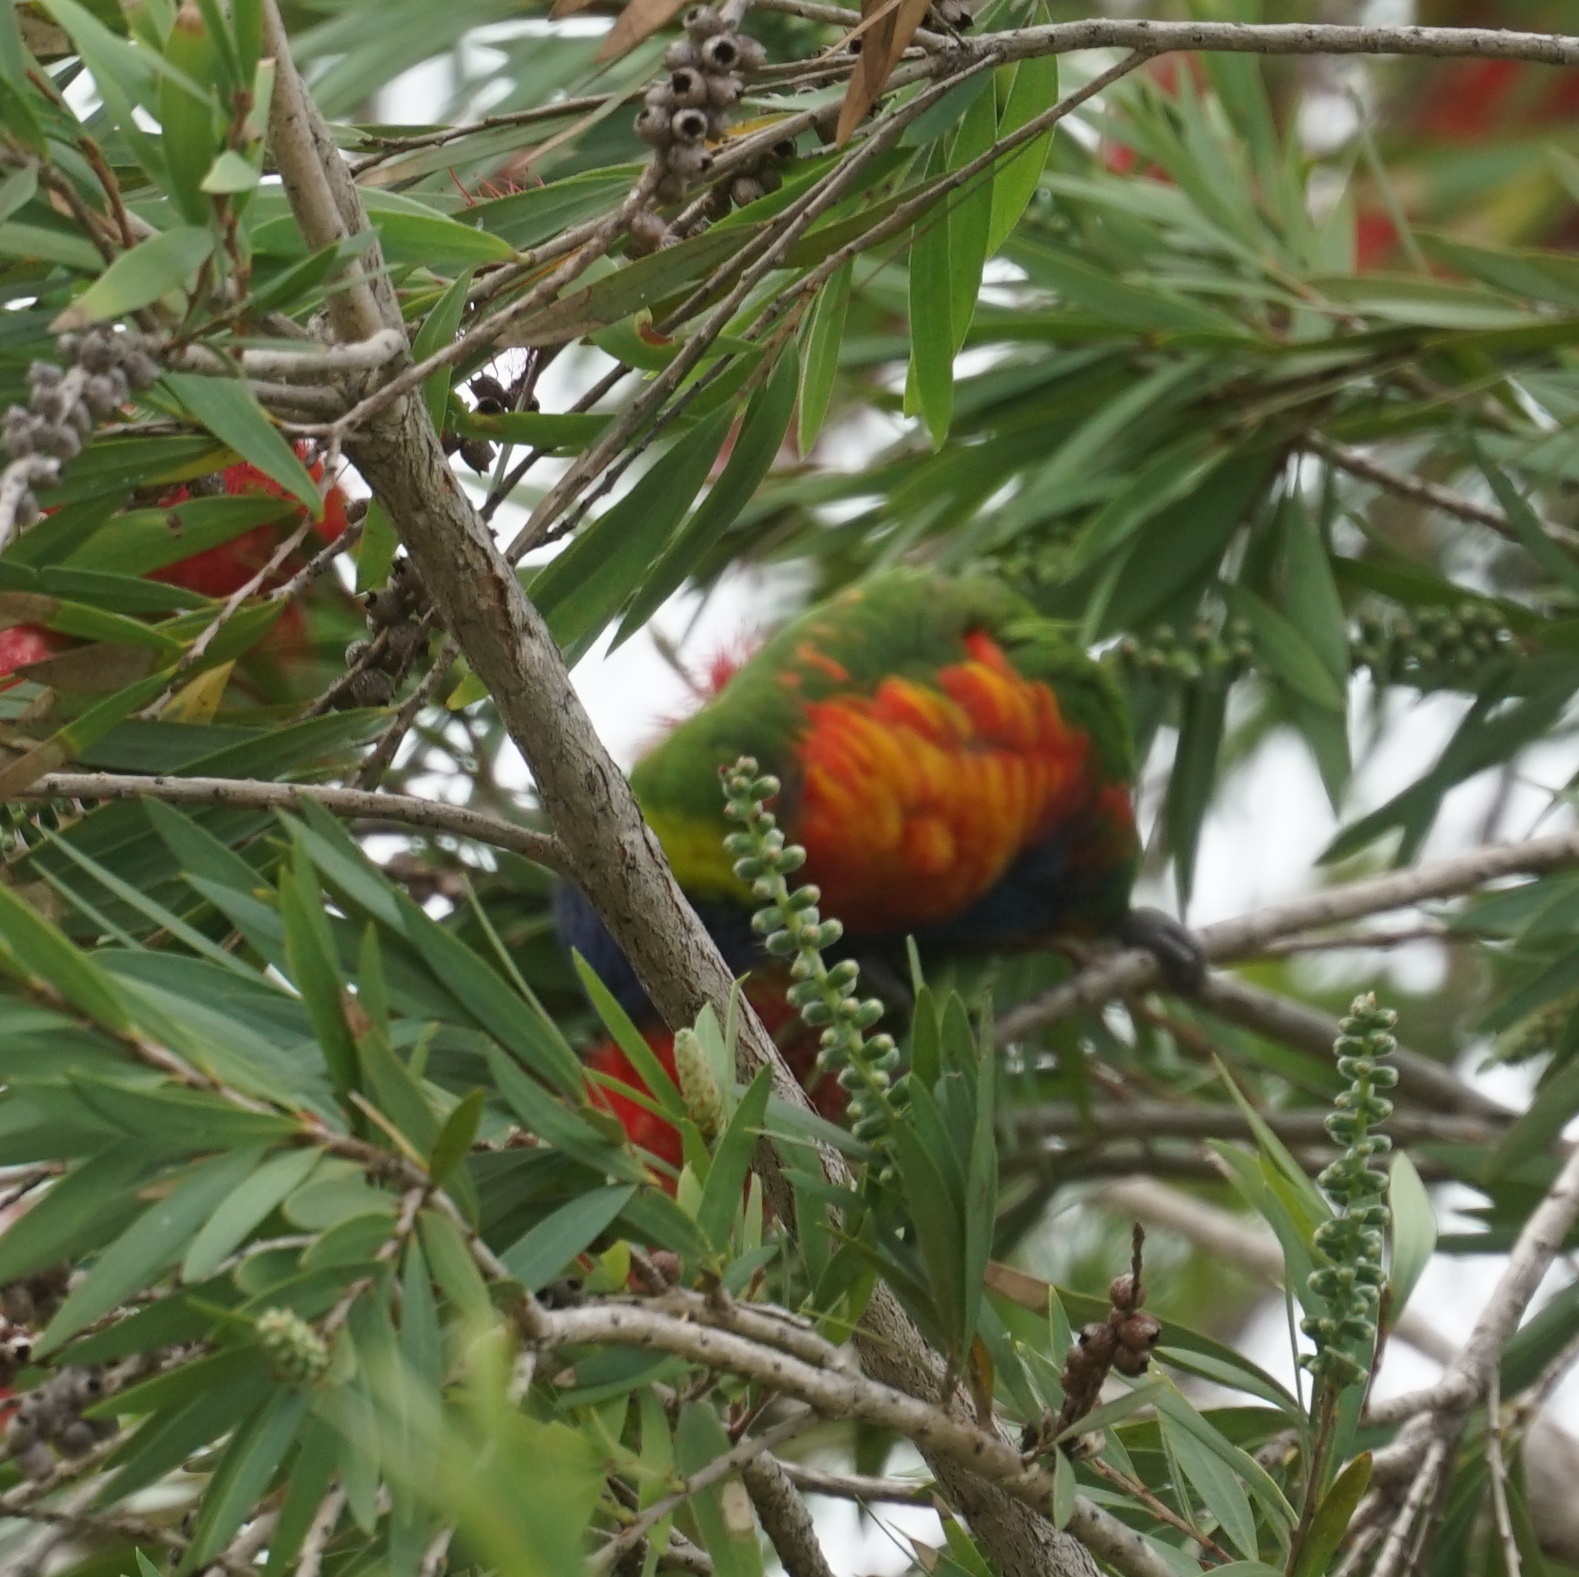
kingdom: Animalia
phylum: Chordata
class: Aves
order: Psittaciformes
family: Psittacidae
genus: Trichoglossus
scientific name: Trichoglossus haematodus
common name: Coconut lorikeet
